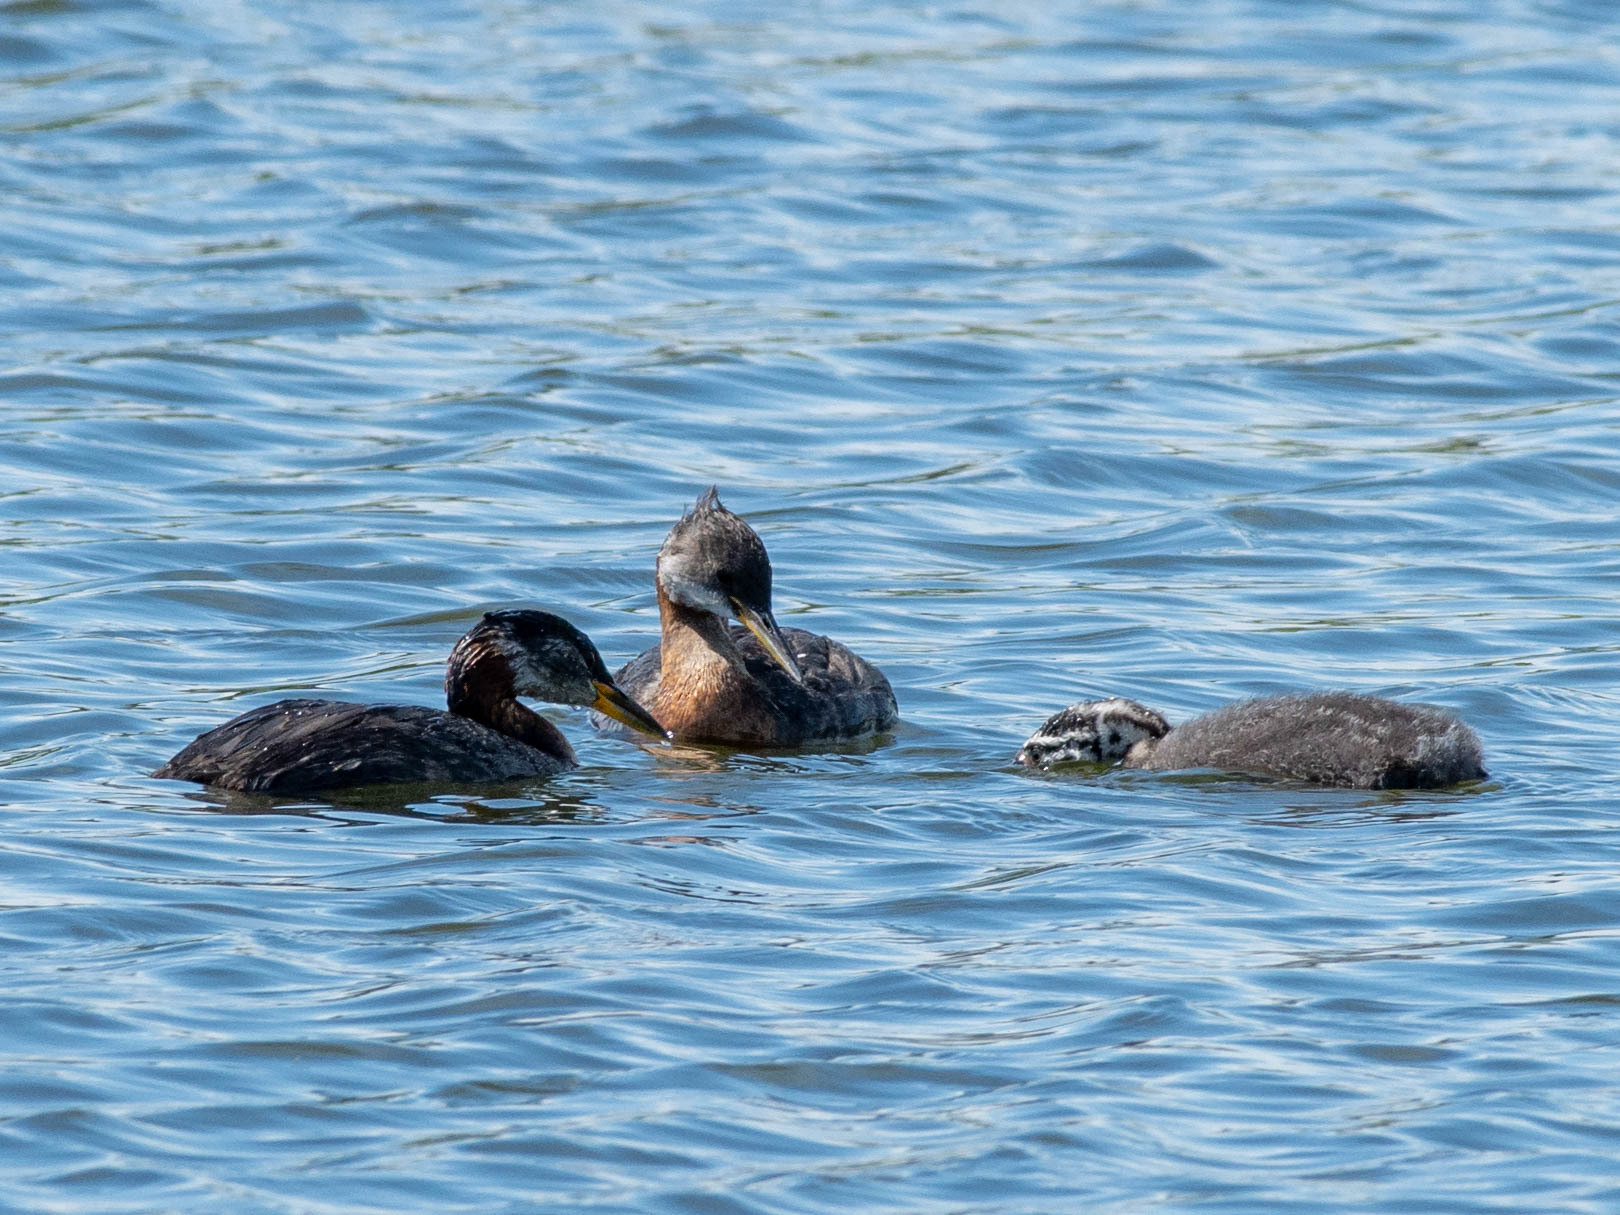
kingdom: Animalia
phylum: Chordata
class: Aves
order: Podicipediformes
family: Podicipedidae
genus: Podiceps
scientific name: Podiceps grisegena
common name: Red-necked grebe
